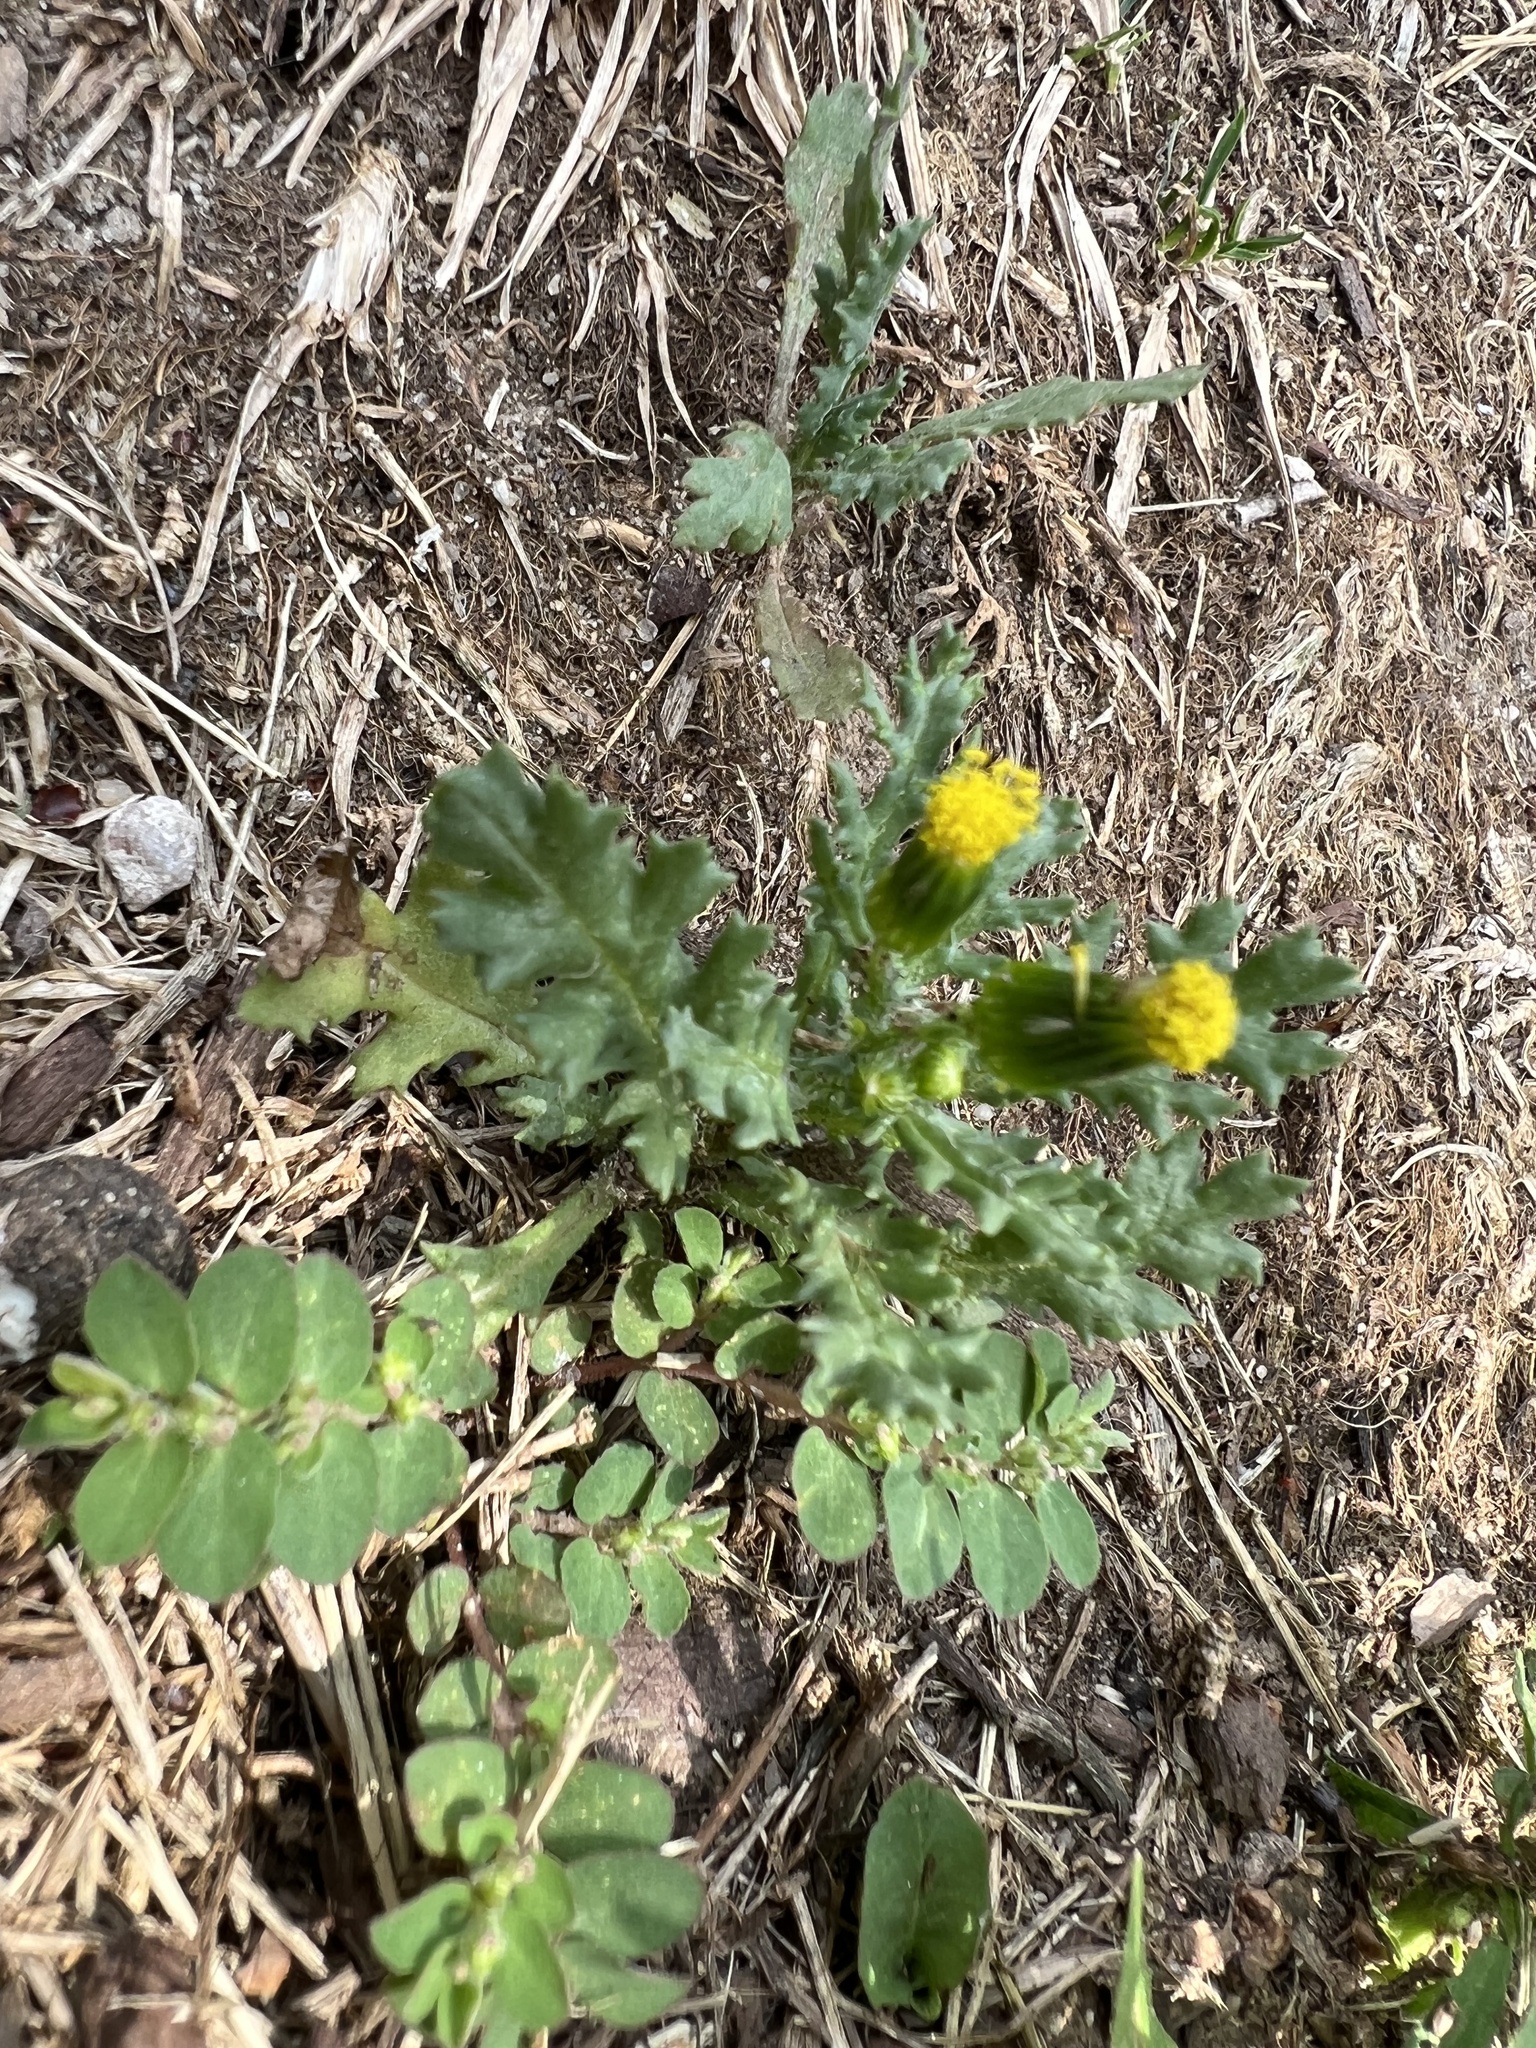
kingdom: Plantae
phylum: Tracheophyta
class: Magnoliopsida
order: Asterales
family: Asteraceae
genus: Senecio
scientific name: Senecio vulgaris
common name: Old-man-in-the-spring
